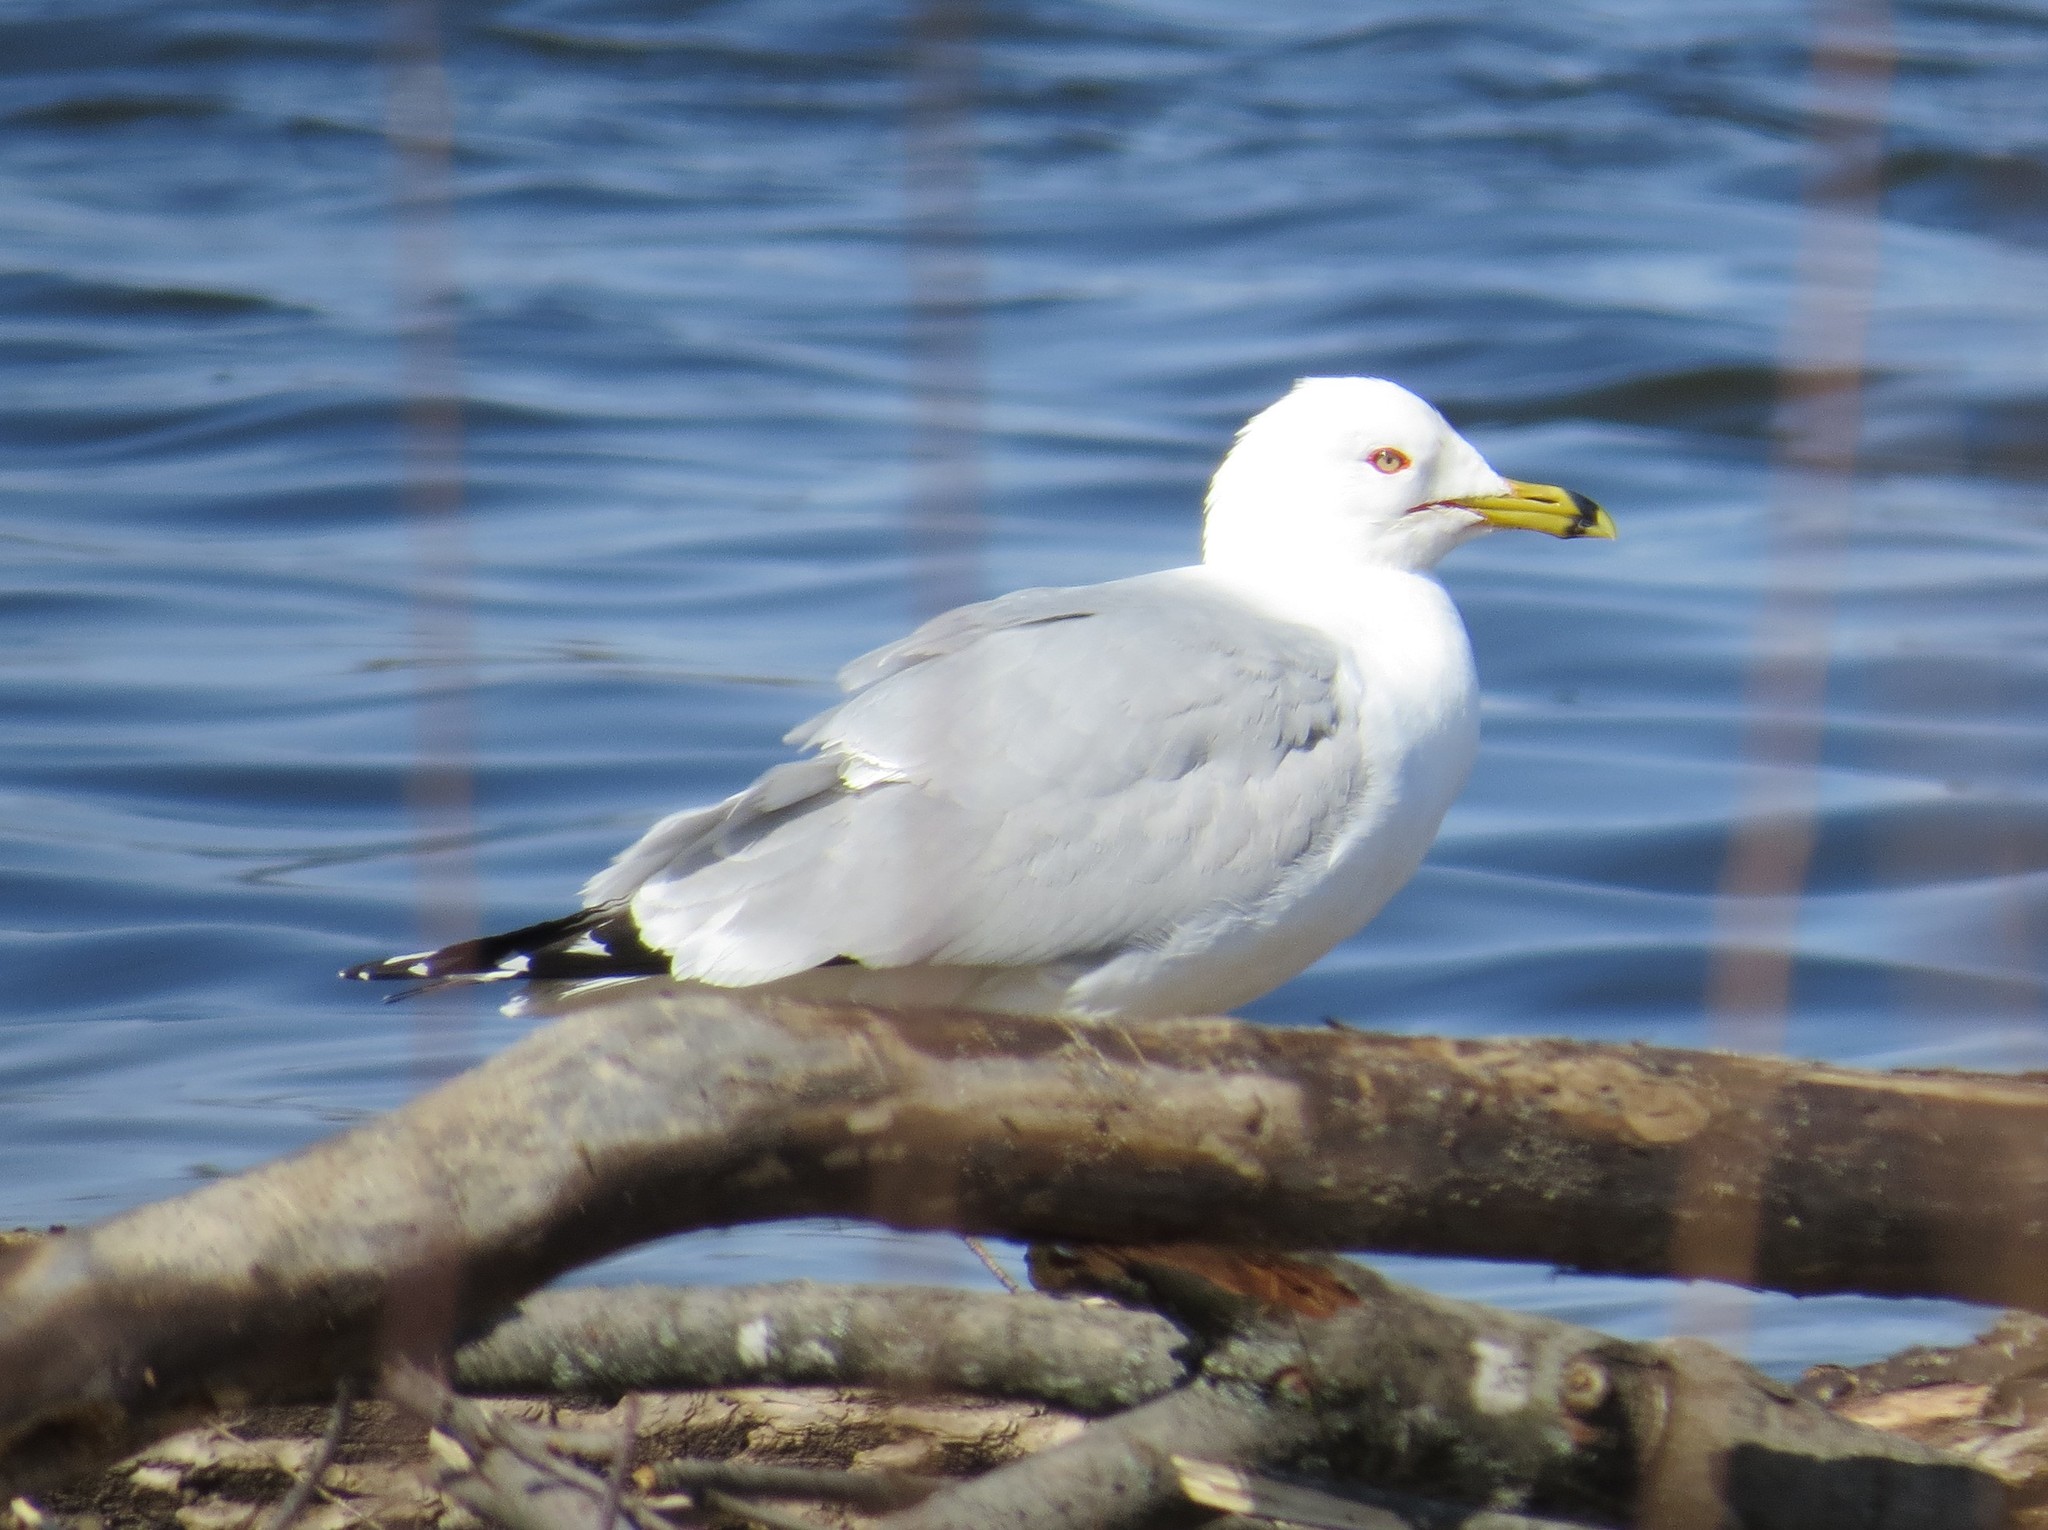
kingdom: Animalia
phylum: Chordata
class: Aves
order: Charadriiformes
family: Laridae
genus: Larus
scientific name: Larus delawarensis
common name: Ring-billed gull
